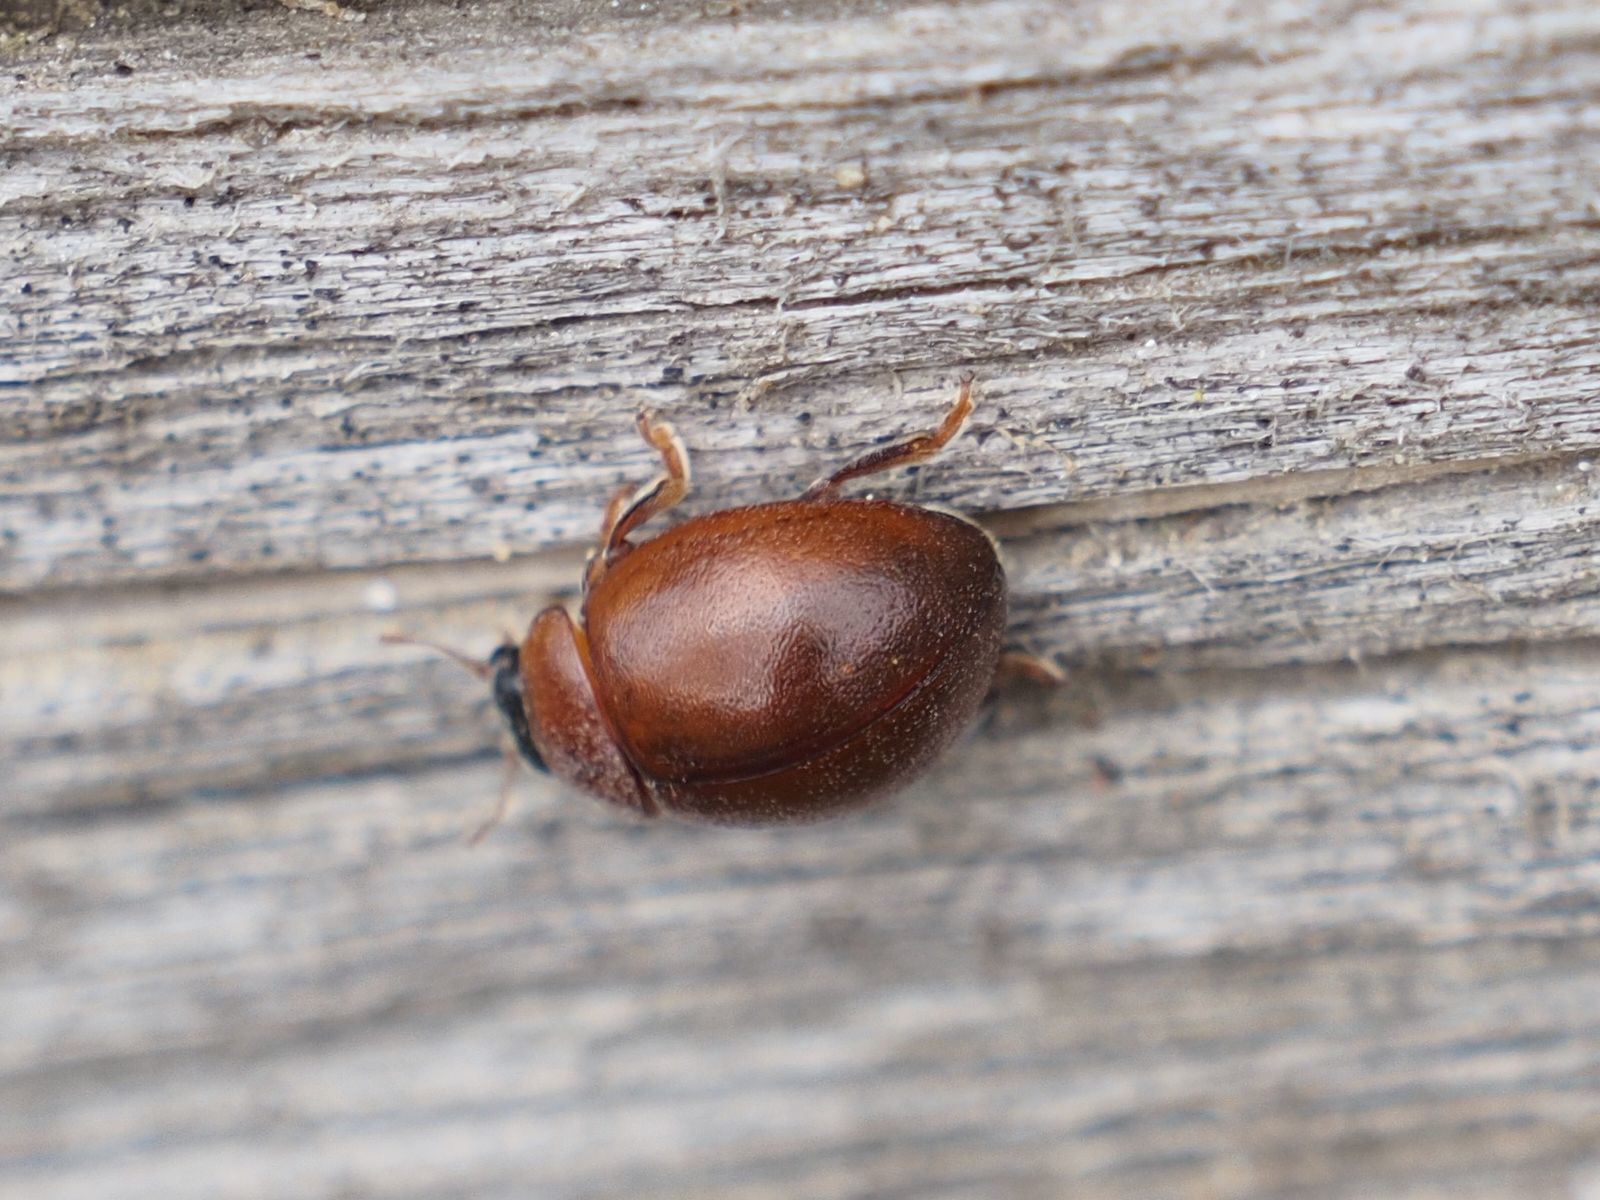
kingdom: Animalia
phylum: Arthropoda
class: Insecta
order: Coleoptera
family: Coccinellidae
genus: Cynegetis
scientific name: Cynegetis impunctata
